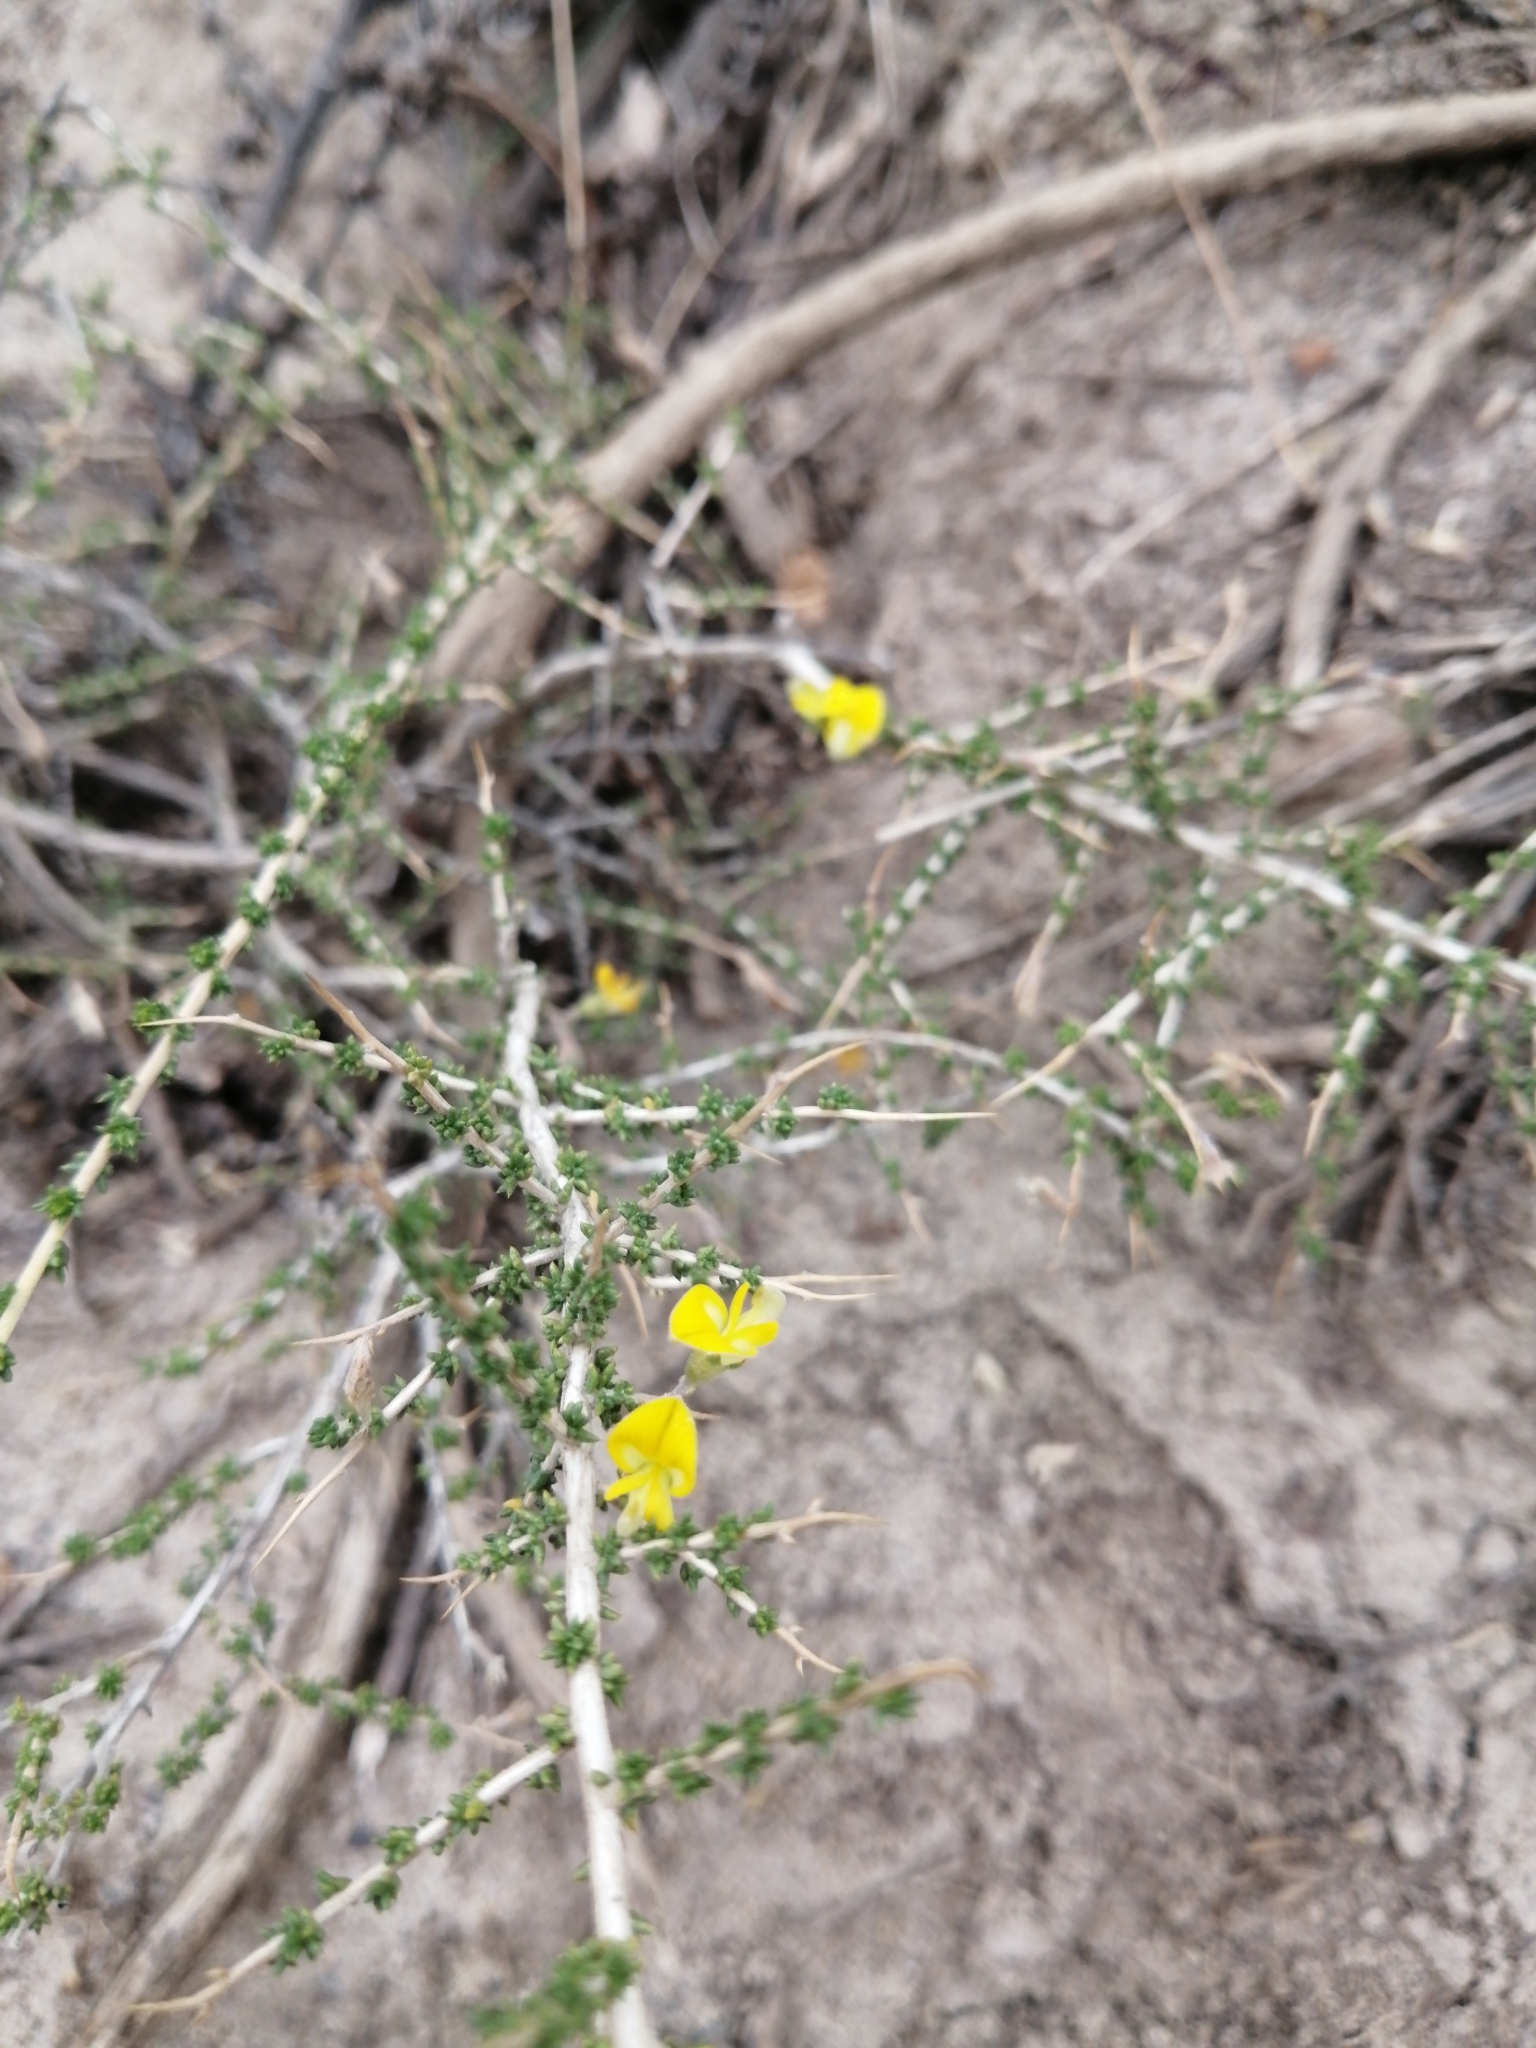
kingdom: Plantae
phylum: Tracheophyta
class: Magnoliopsida
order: Fabales
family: Fabaceae
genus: Aspalathus
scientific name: Aspalathus acuminata
